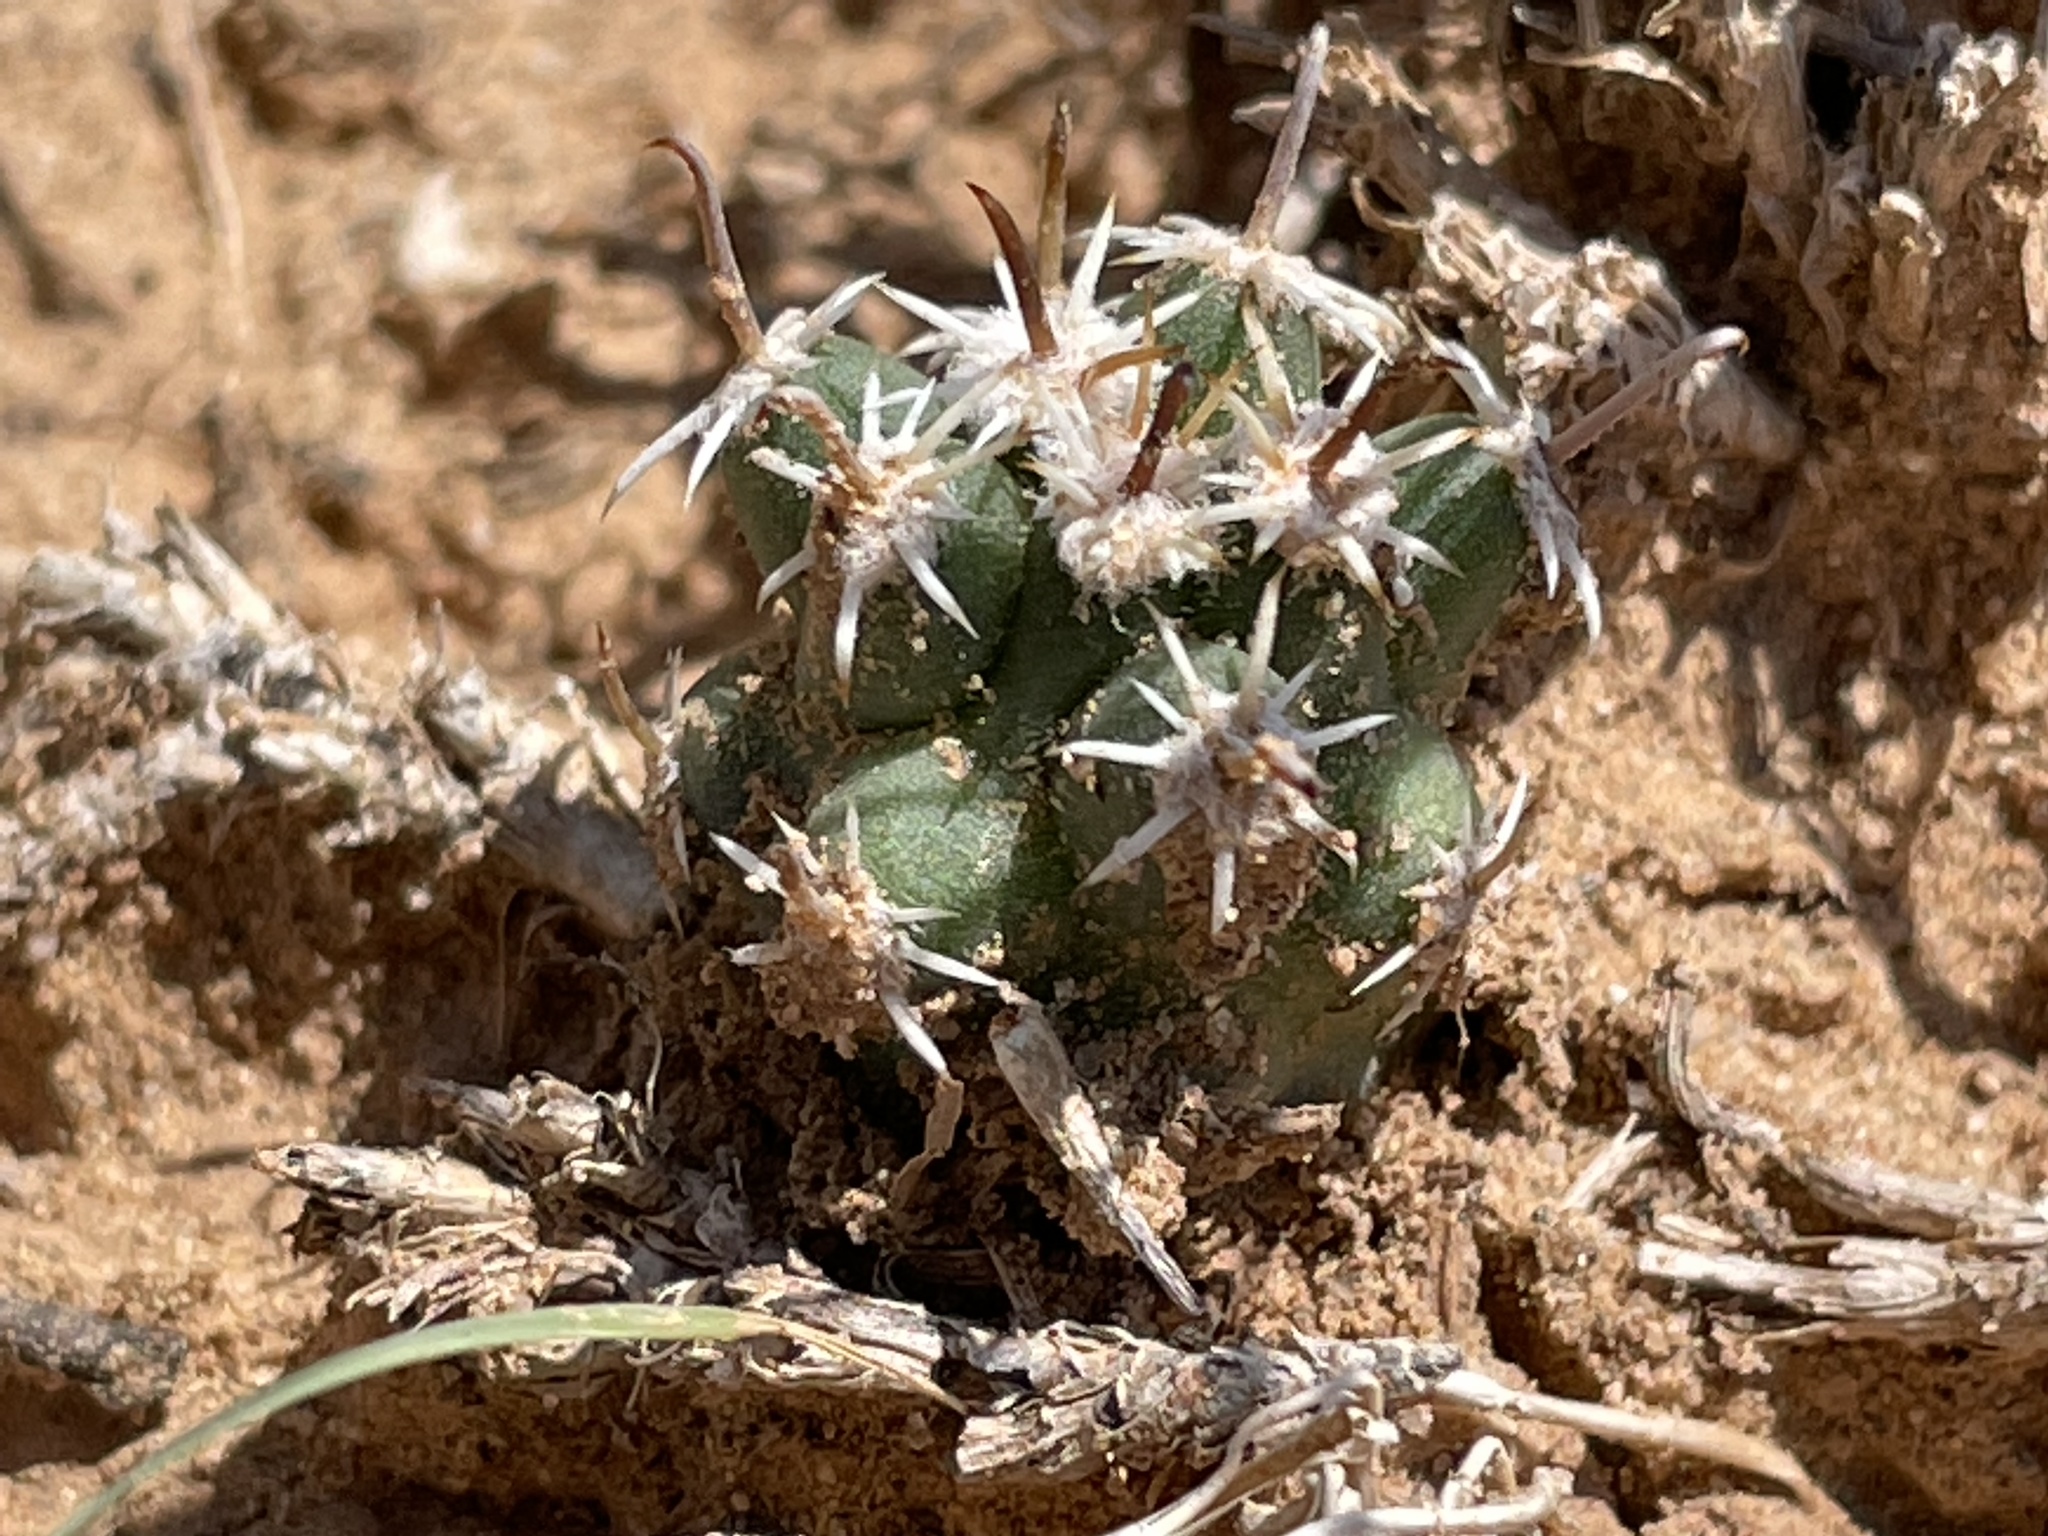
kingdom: Plantae
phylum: Tracheophyta
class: Magnoliopsida
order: Caryophyllales
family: Cactaceae
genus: Sclerocactus
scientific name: Sclerocactus cloverae
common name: Clover's eagle-claw cactus
